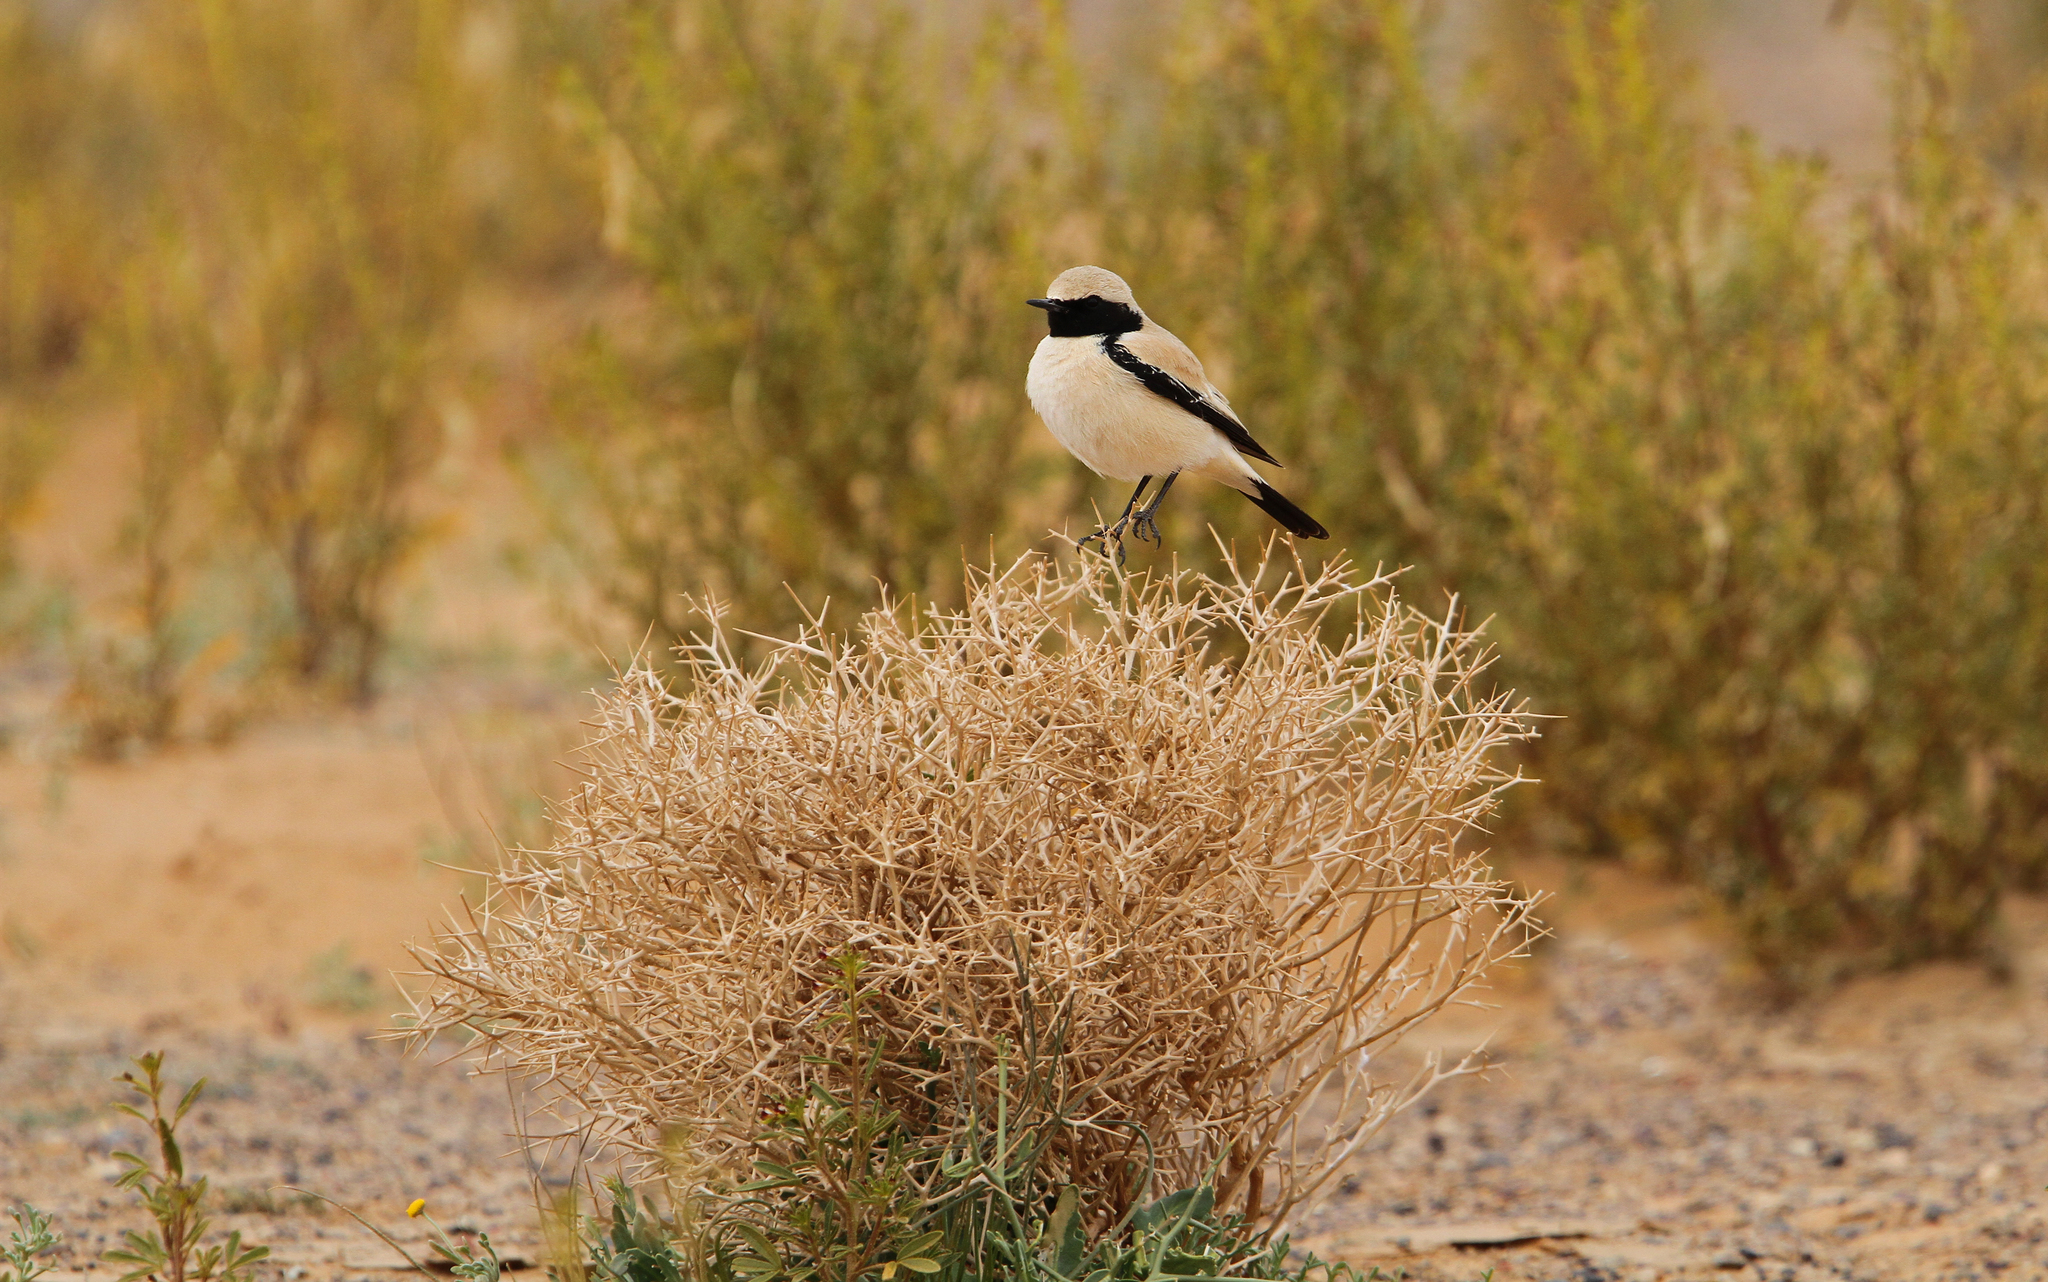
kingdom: Animalia
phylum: Chordata
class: Aves
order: Passeriformes
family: Muscicapidae
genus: Oenanthe
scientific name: Oenanthe deserti
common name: Desert wheatear
